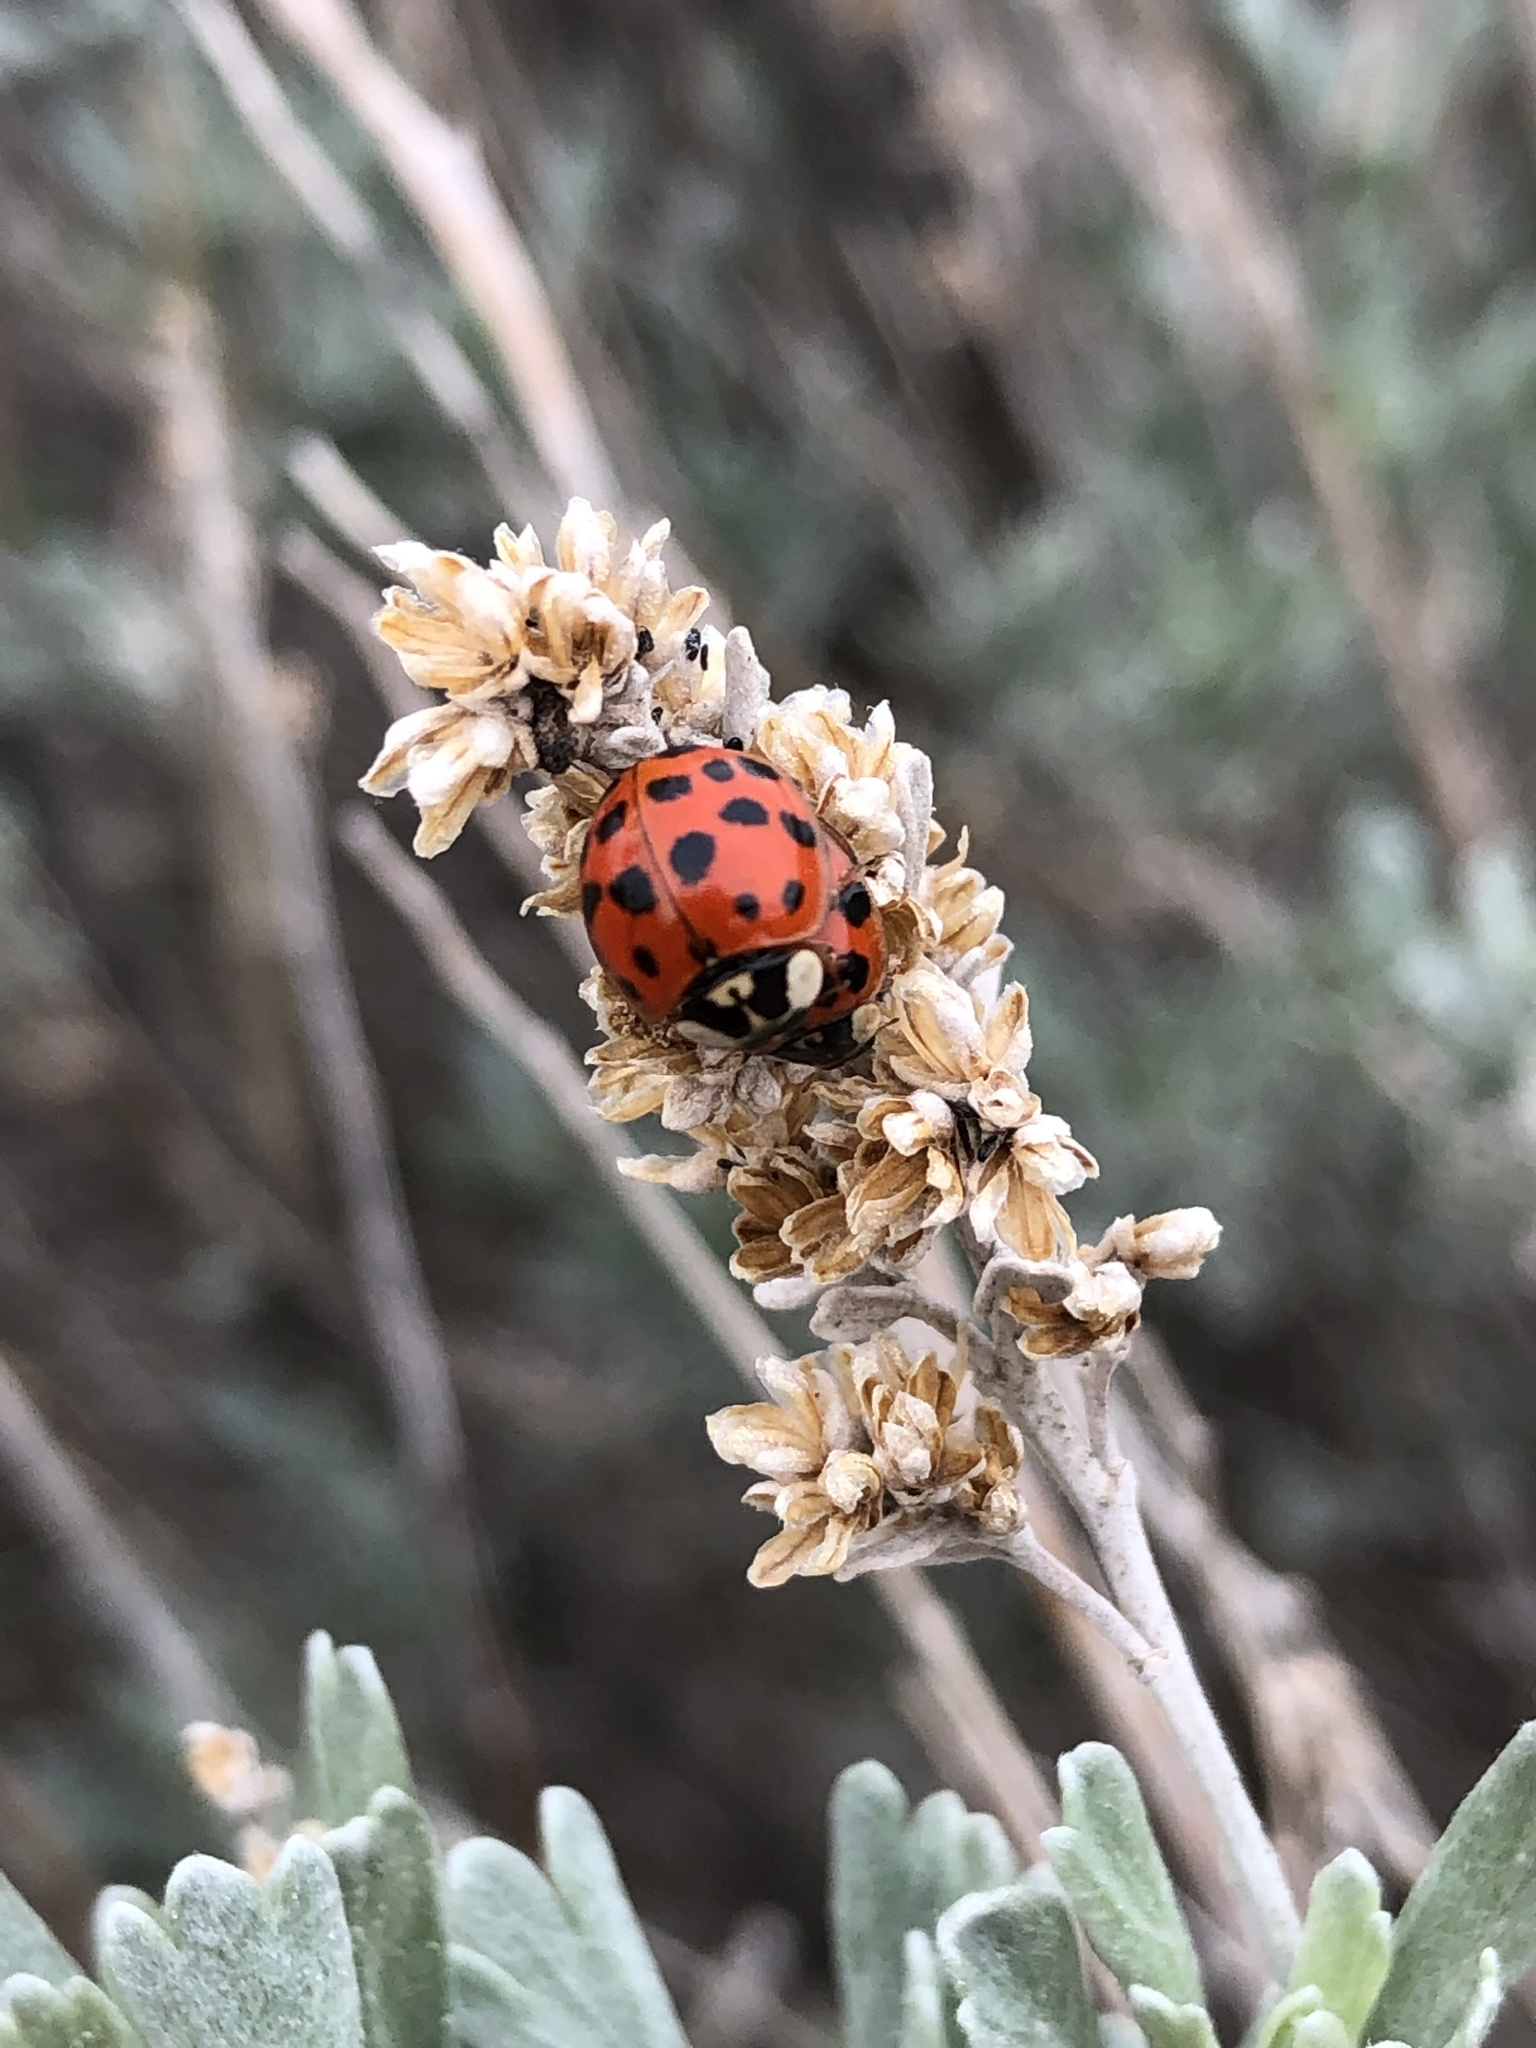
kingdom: Animalia
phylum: Arthropoda
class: Insecta
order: Coleoptera
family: Coccinellidae
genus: Harmonia
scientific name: Harmonia axyridis
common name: Harlequin ladybird
